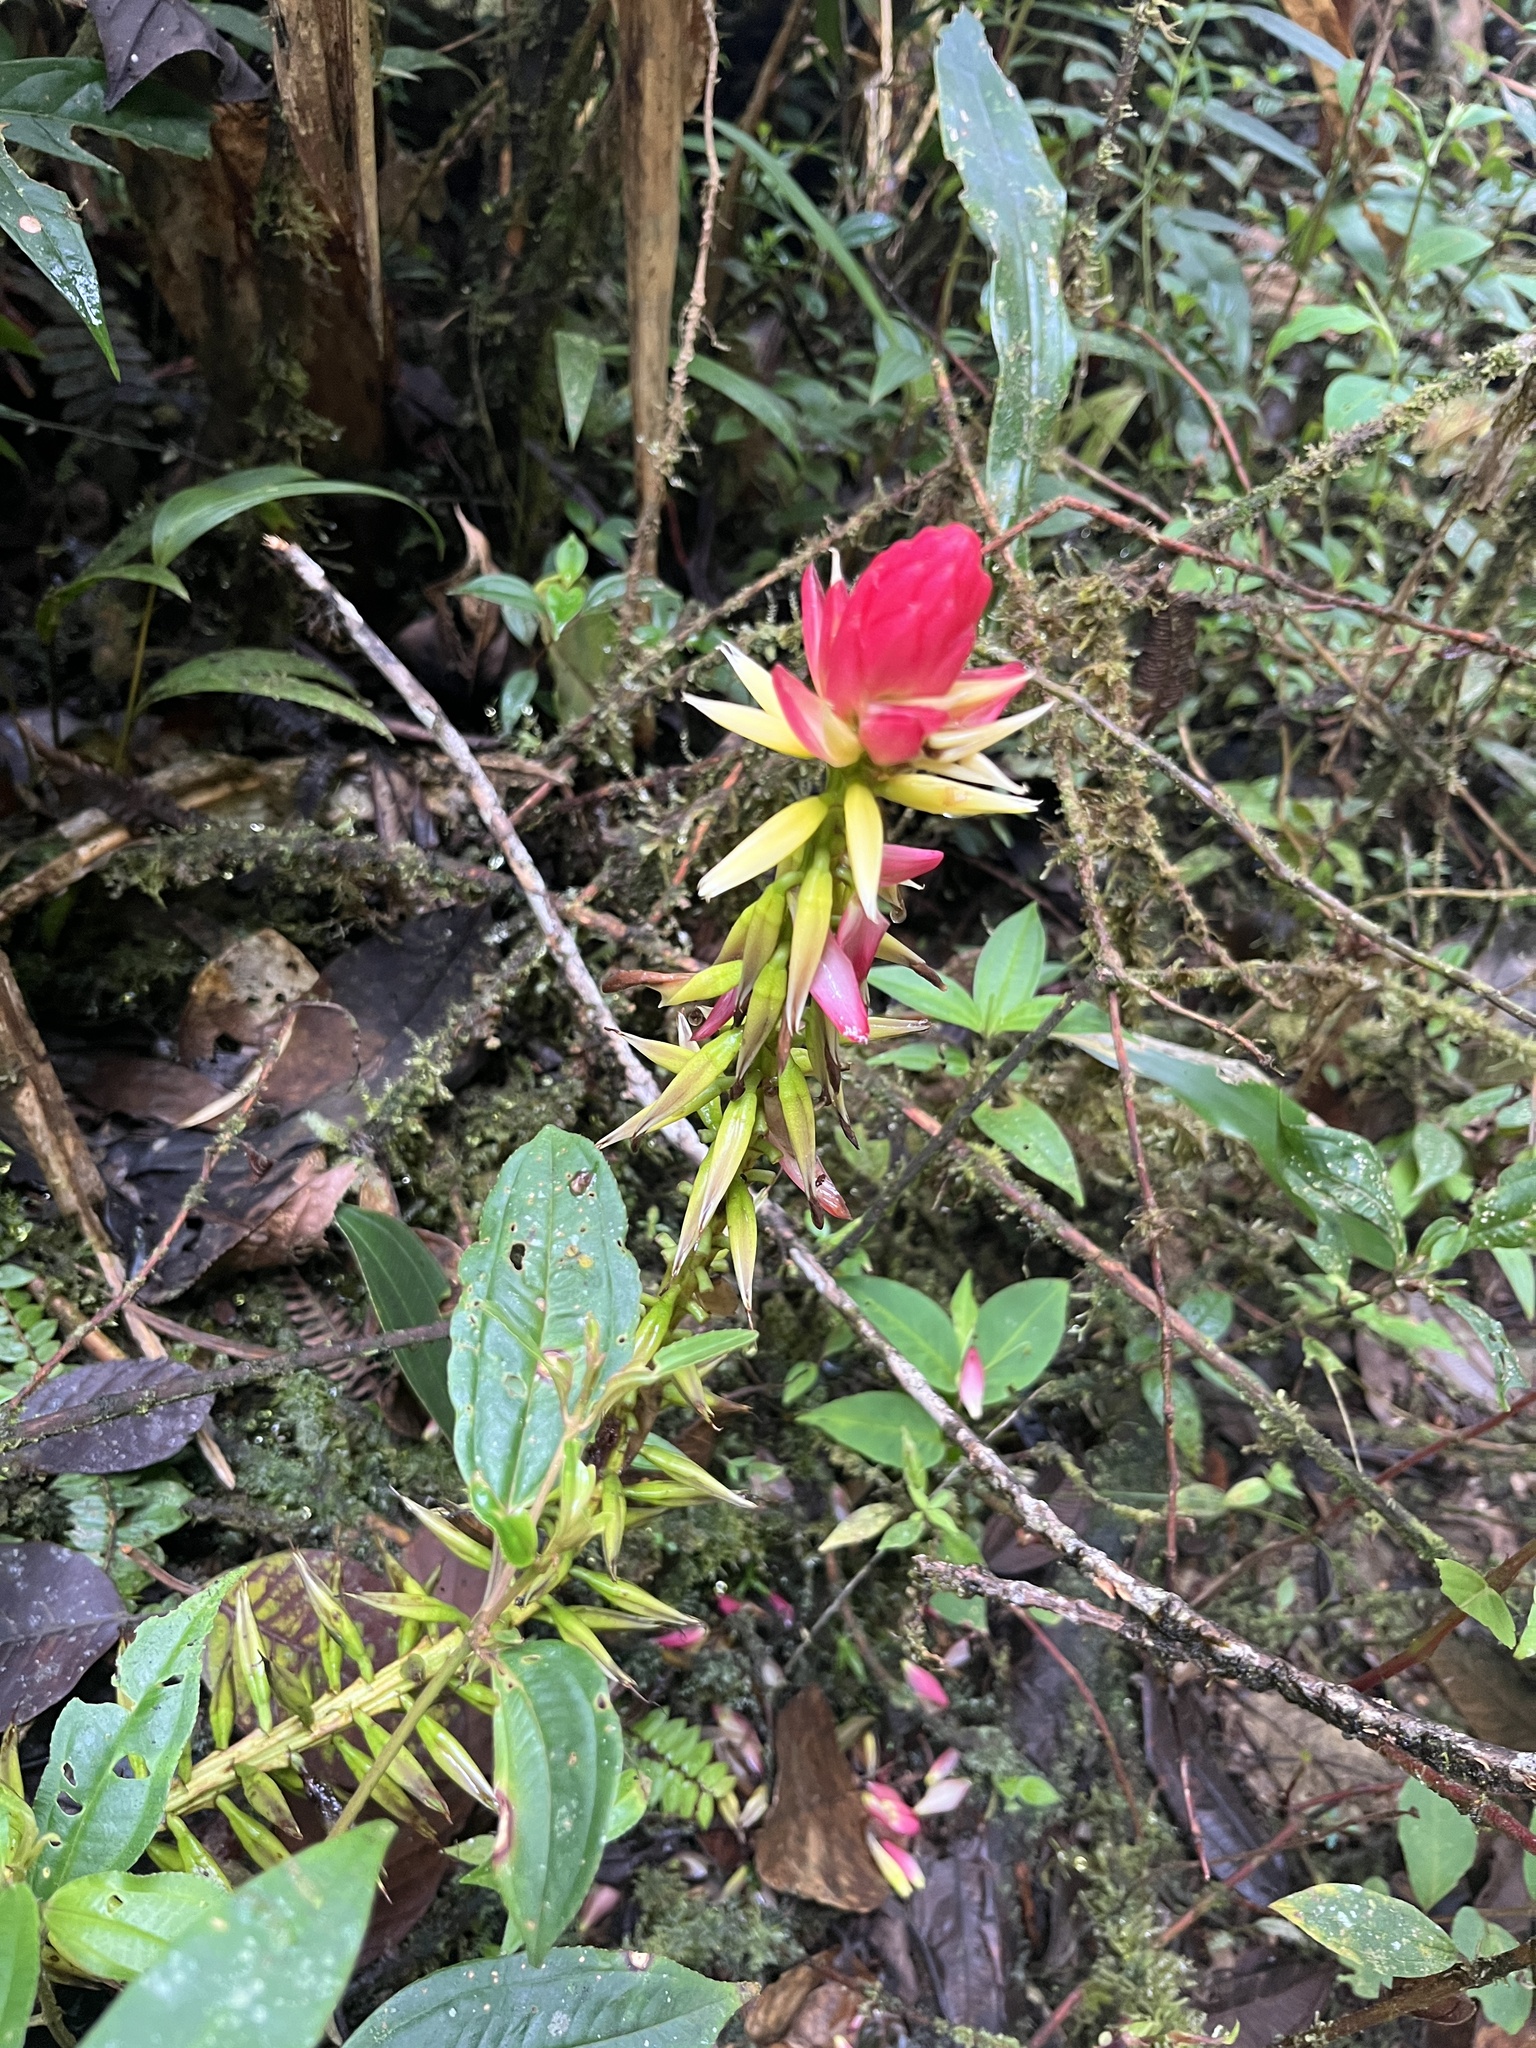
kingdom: Plantae
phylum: Tracheophyta
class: Liliopsida
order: Poales
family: Bromeliaceae
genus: Pitcairnia
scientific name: Pitcairnia kniphofioides
